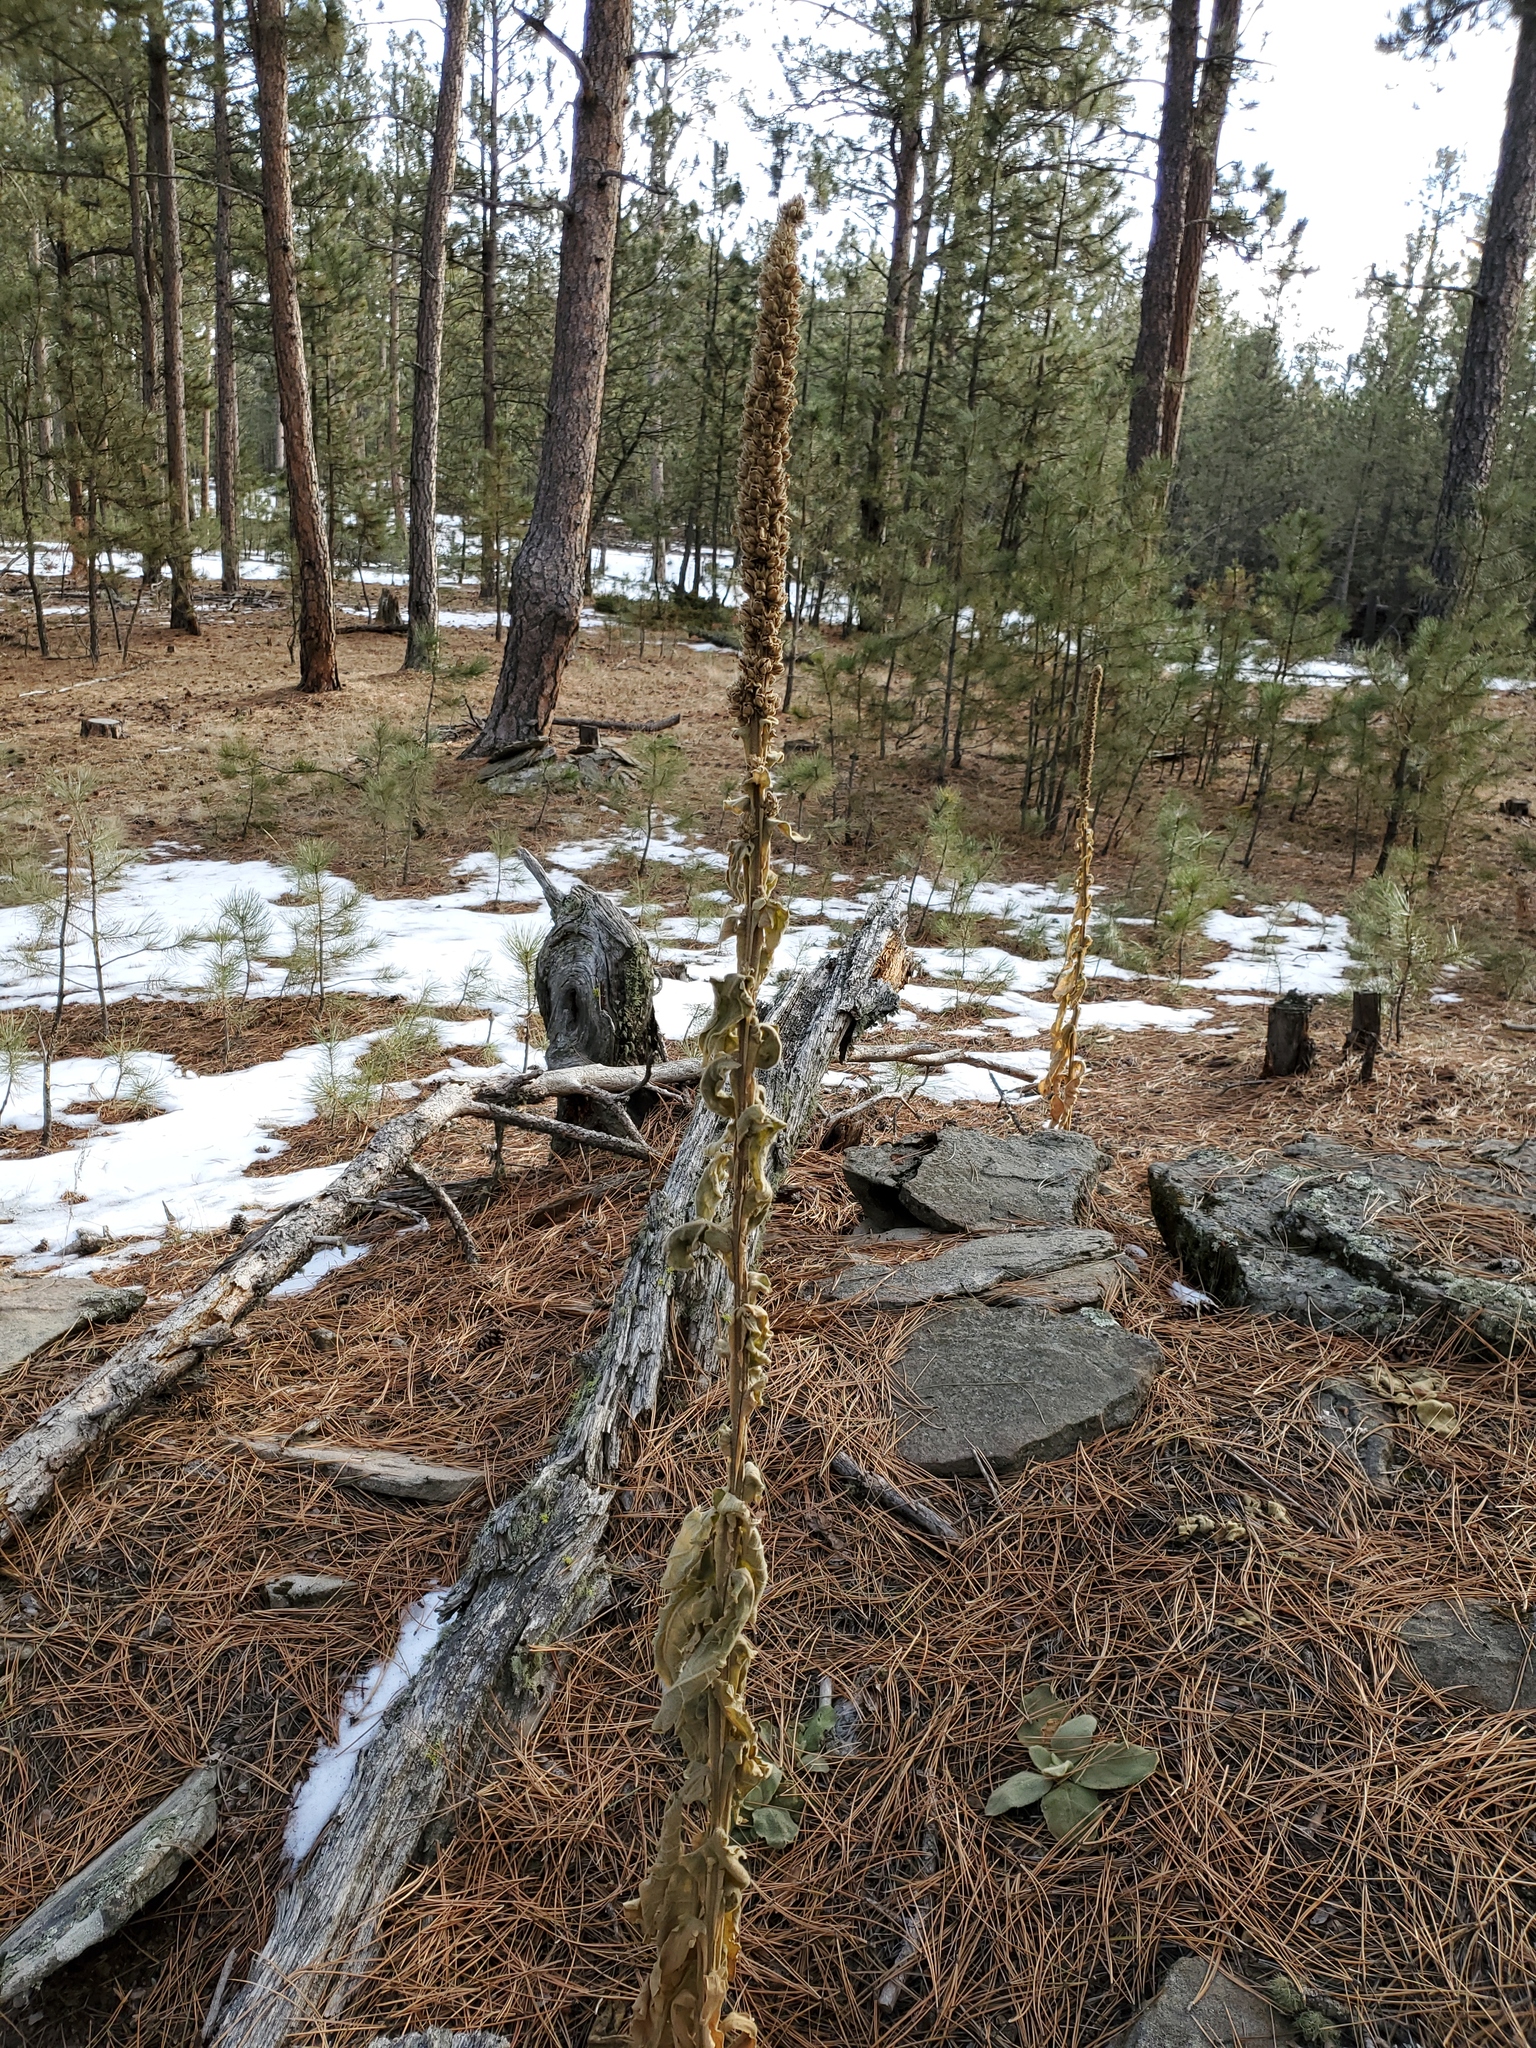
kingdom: Plantae
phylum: Tracheophyta
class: Magnoliopsida
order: Lamiales
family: Scrophulariaceae
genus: Verbascum
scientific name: Verbascum thapsus
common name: Common mullein
